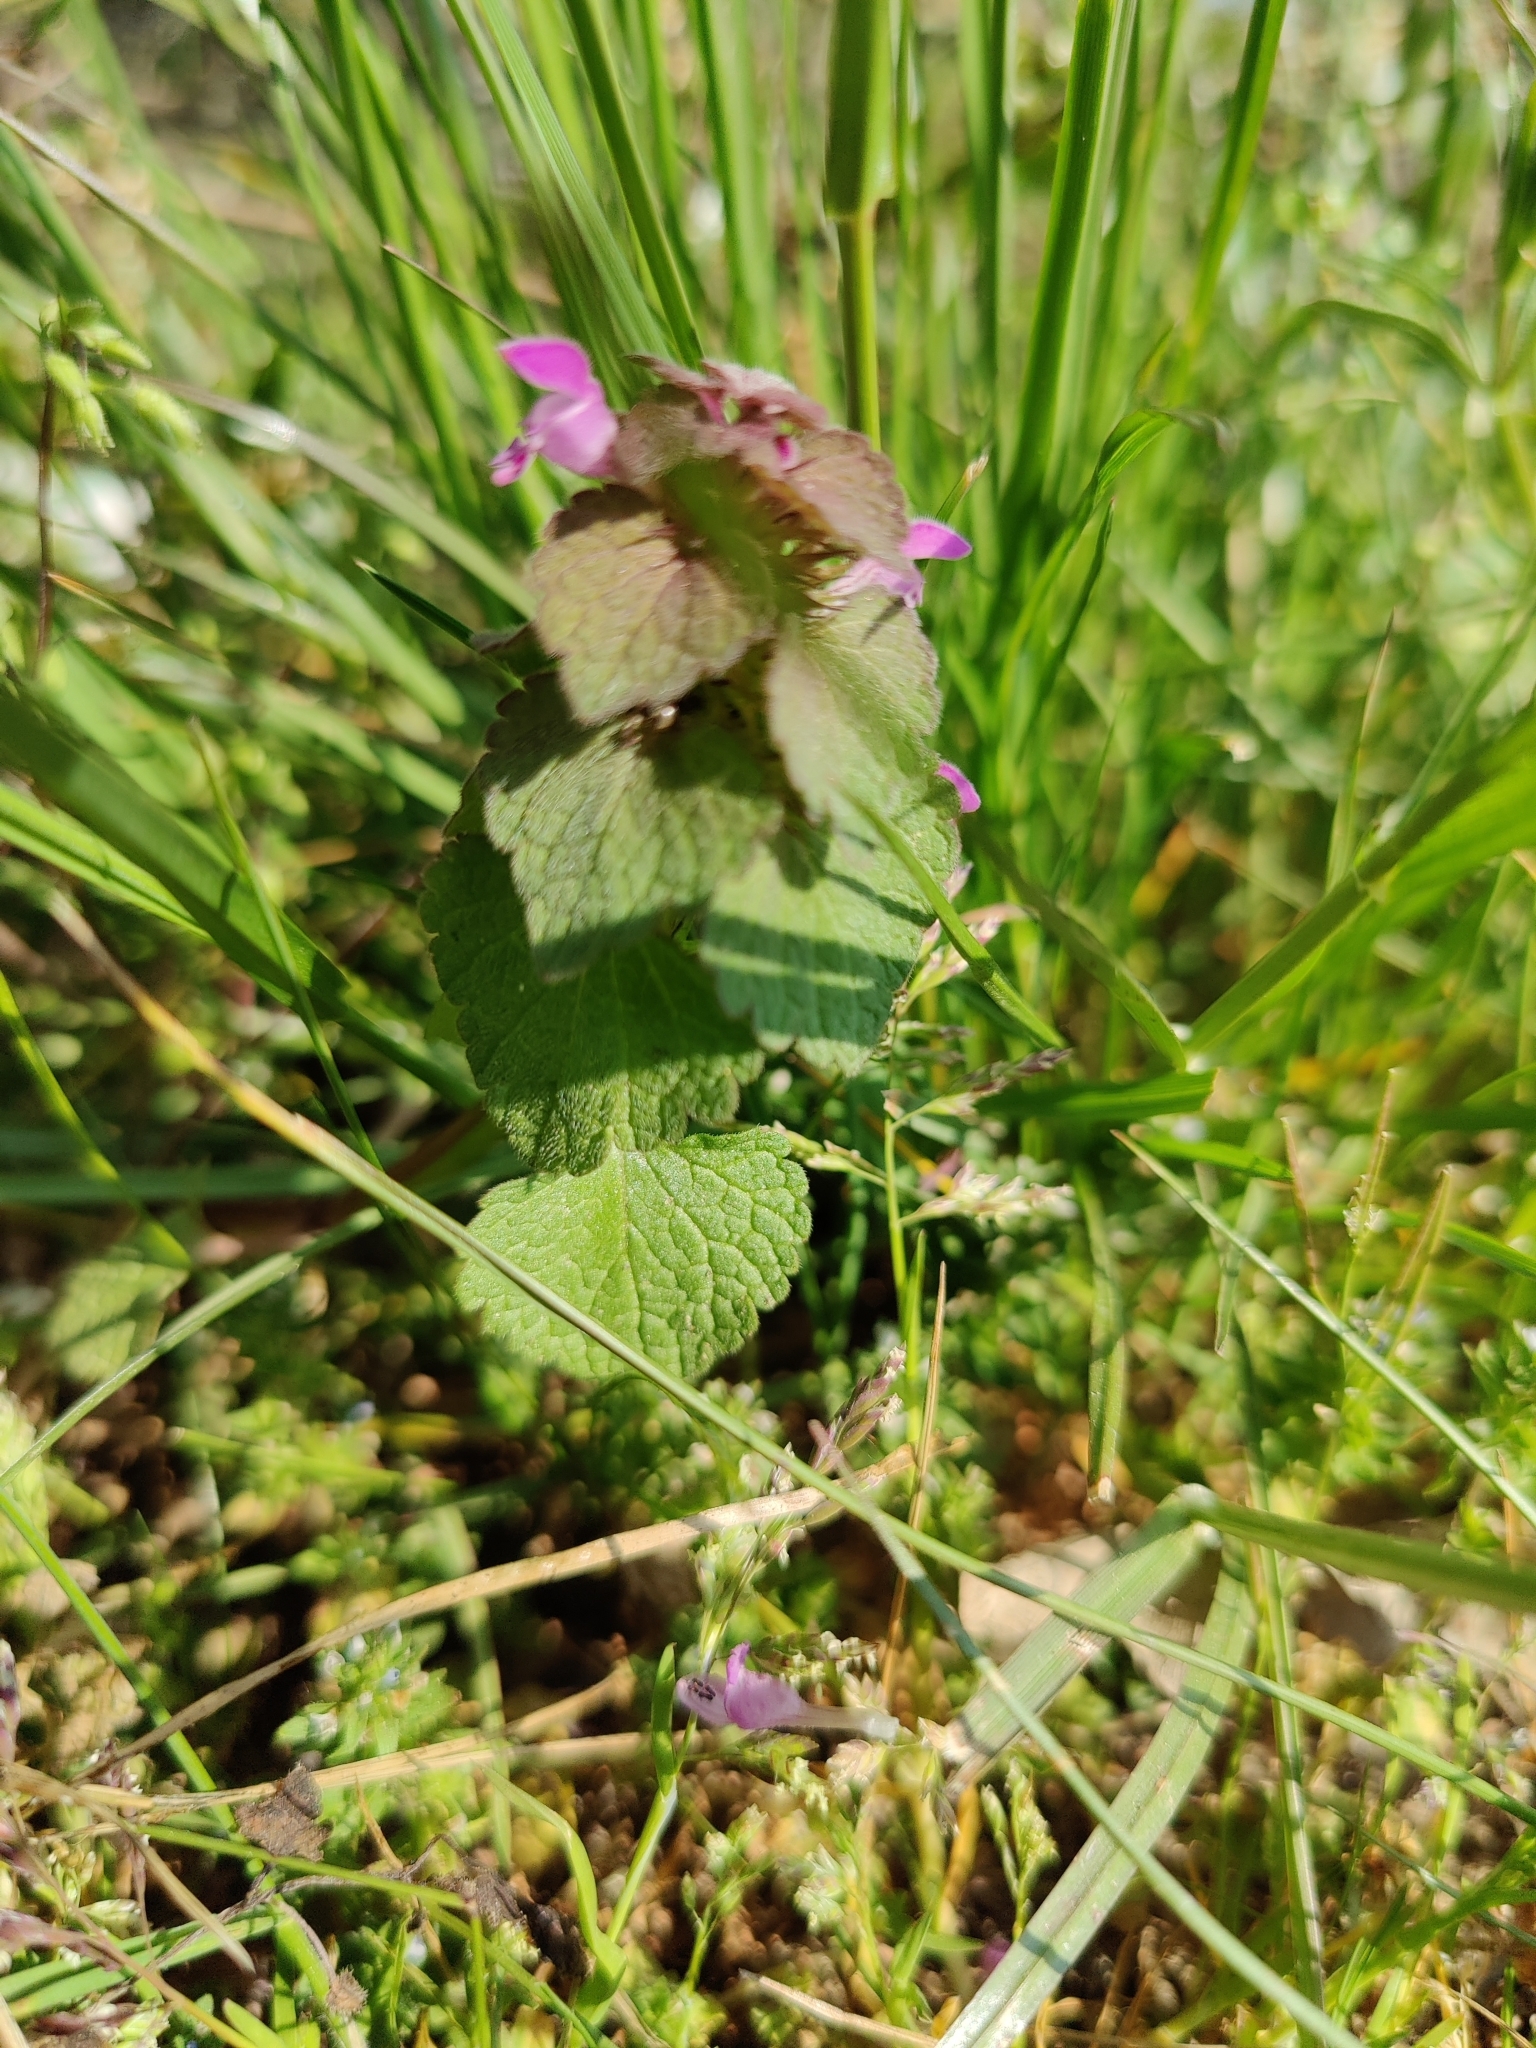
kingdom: Plantae
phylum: Tracheophyta
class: Magnoliopsida
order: Lamiales
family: Lamiaceae
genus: Lamium
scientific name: Lamium purpureum
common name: Red dead-nettle
